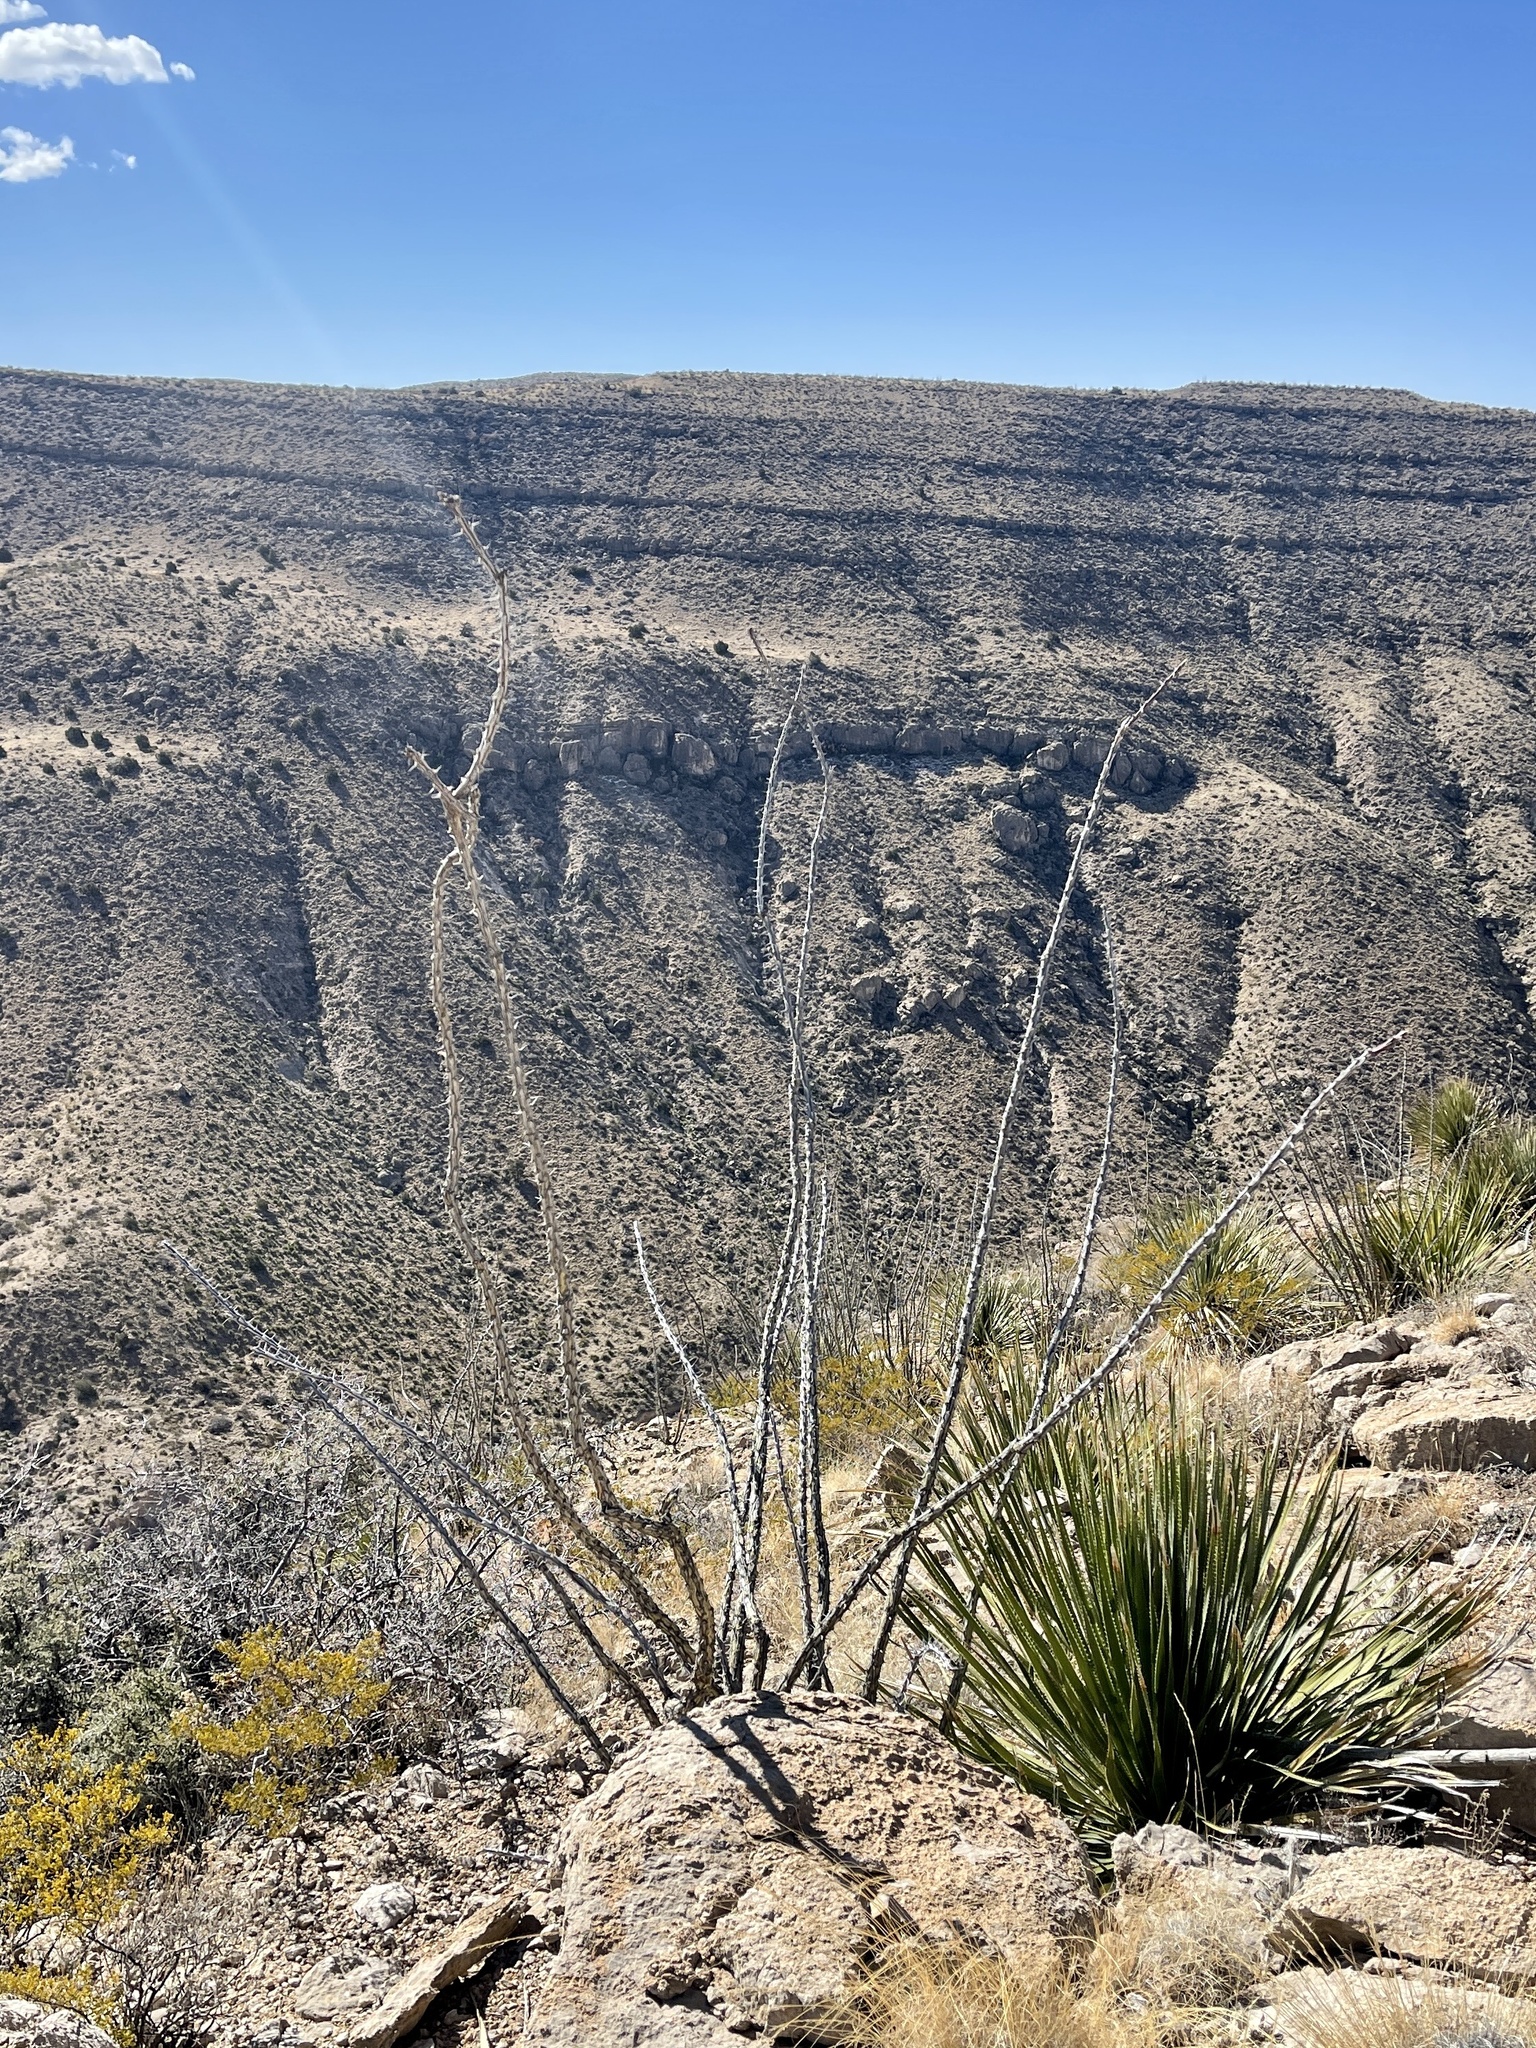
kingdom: Plantae
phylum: Tracheophyta
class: Magnoliopsida
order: Ericales
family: Fouquieriaceae
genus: Fouquieria
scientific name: Fouquieria splendens
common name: Vine-cactus
